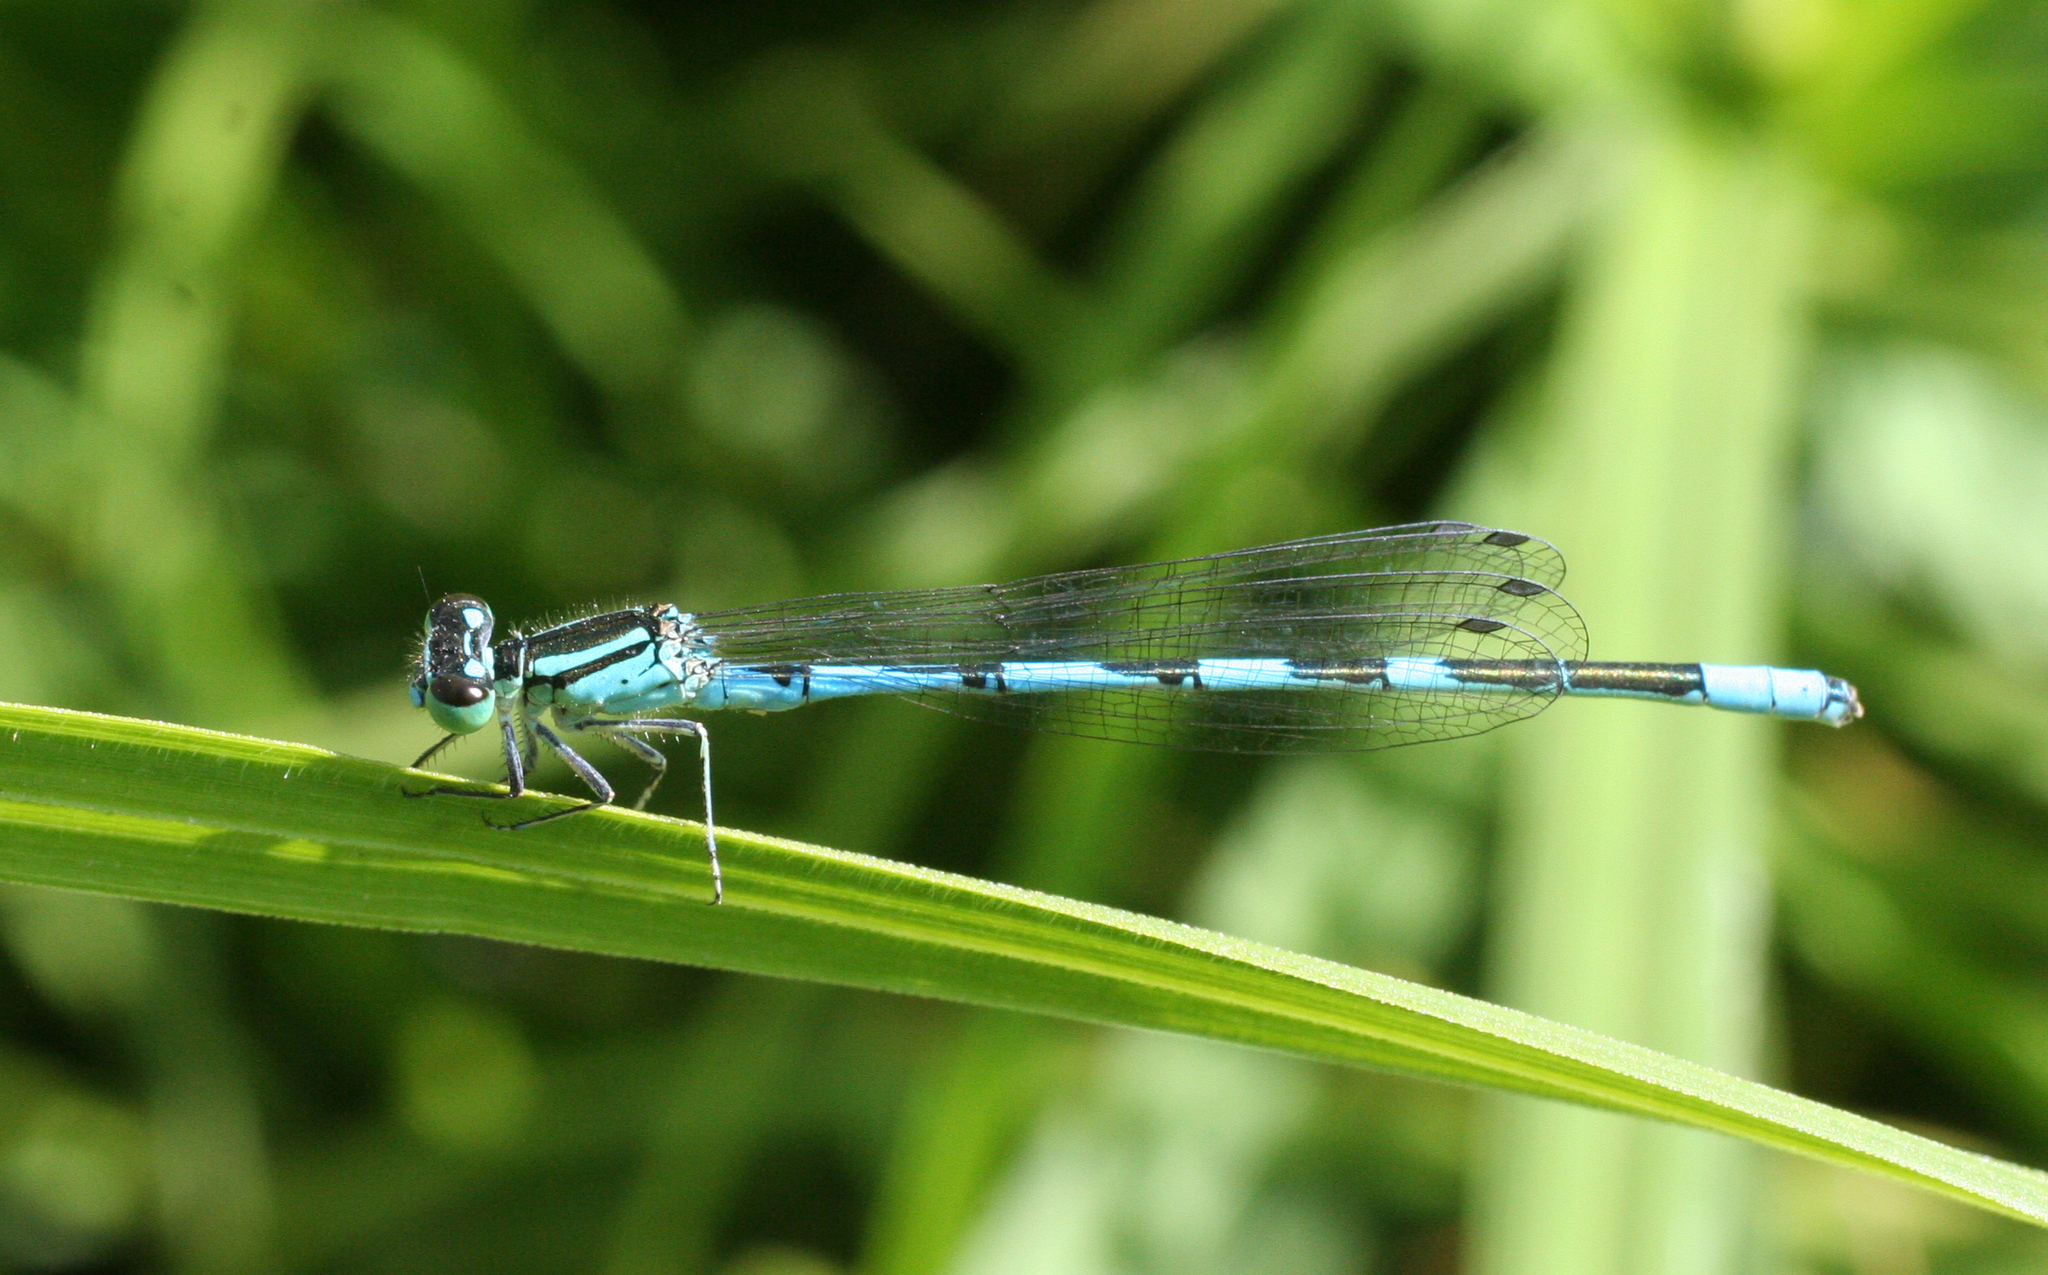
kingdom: Animalia
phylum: Arthropoda
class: Insecta
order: Odonata
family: Coenagrionidae
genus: Coenagrion
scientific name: Coenagrion lanceolatum
